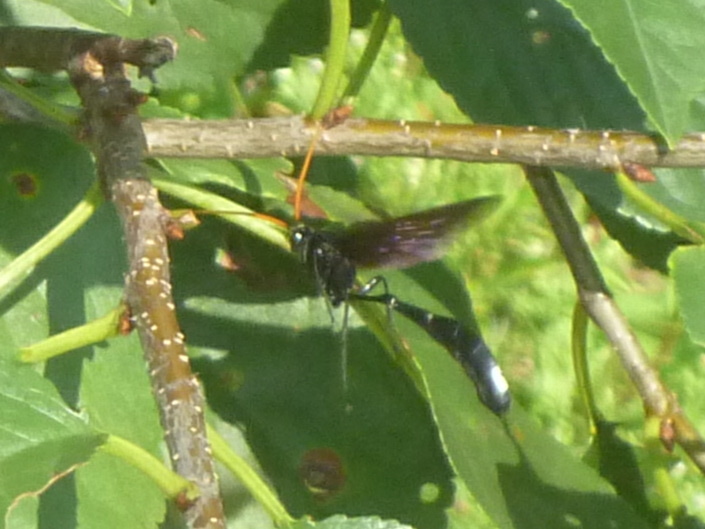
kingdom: Animalia
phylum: Arthropoda
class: Insecta
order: Hymenoptera
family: Ichneumonidae
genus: Thyreodon
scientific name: Thyreodon atricolor
